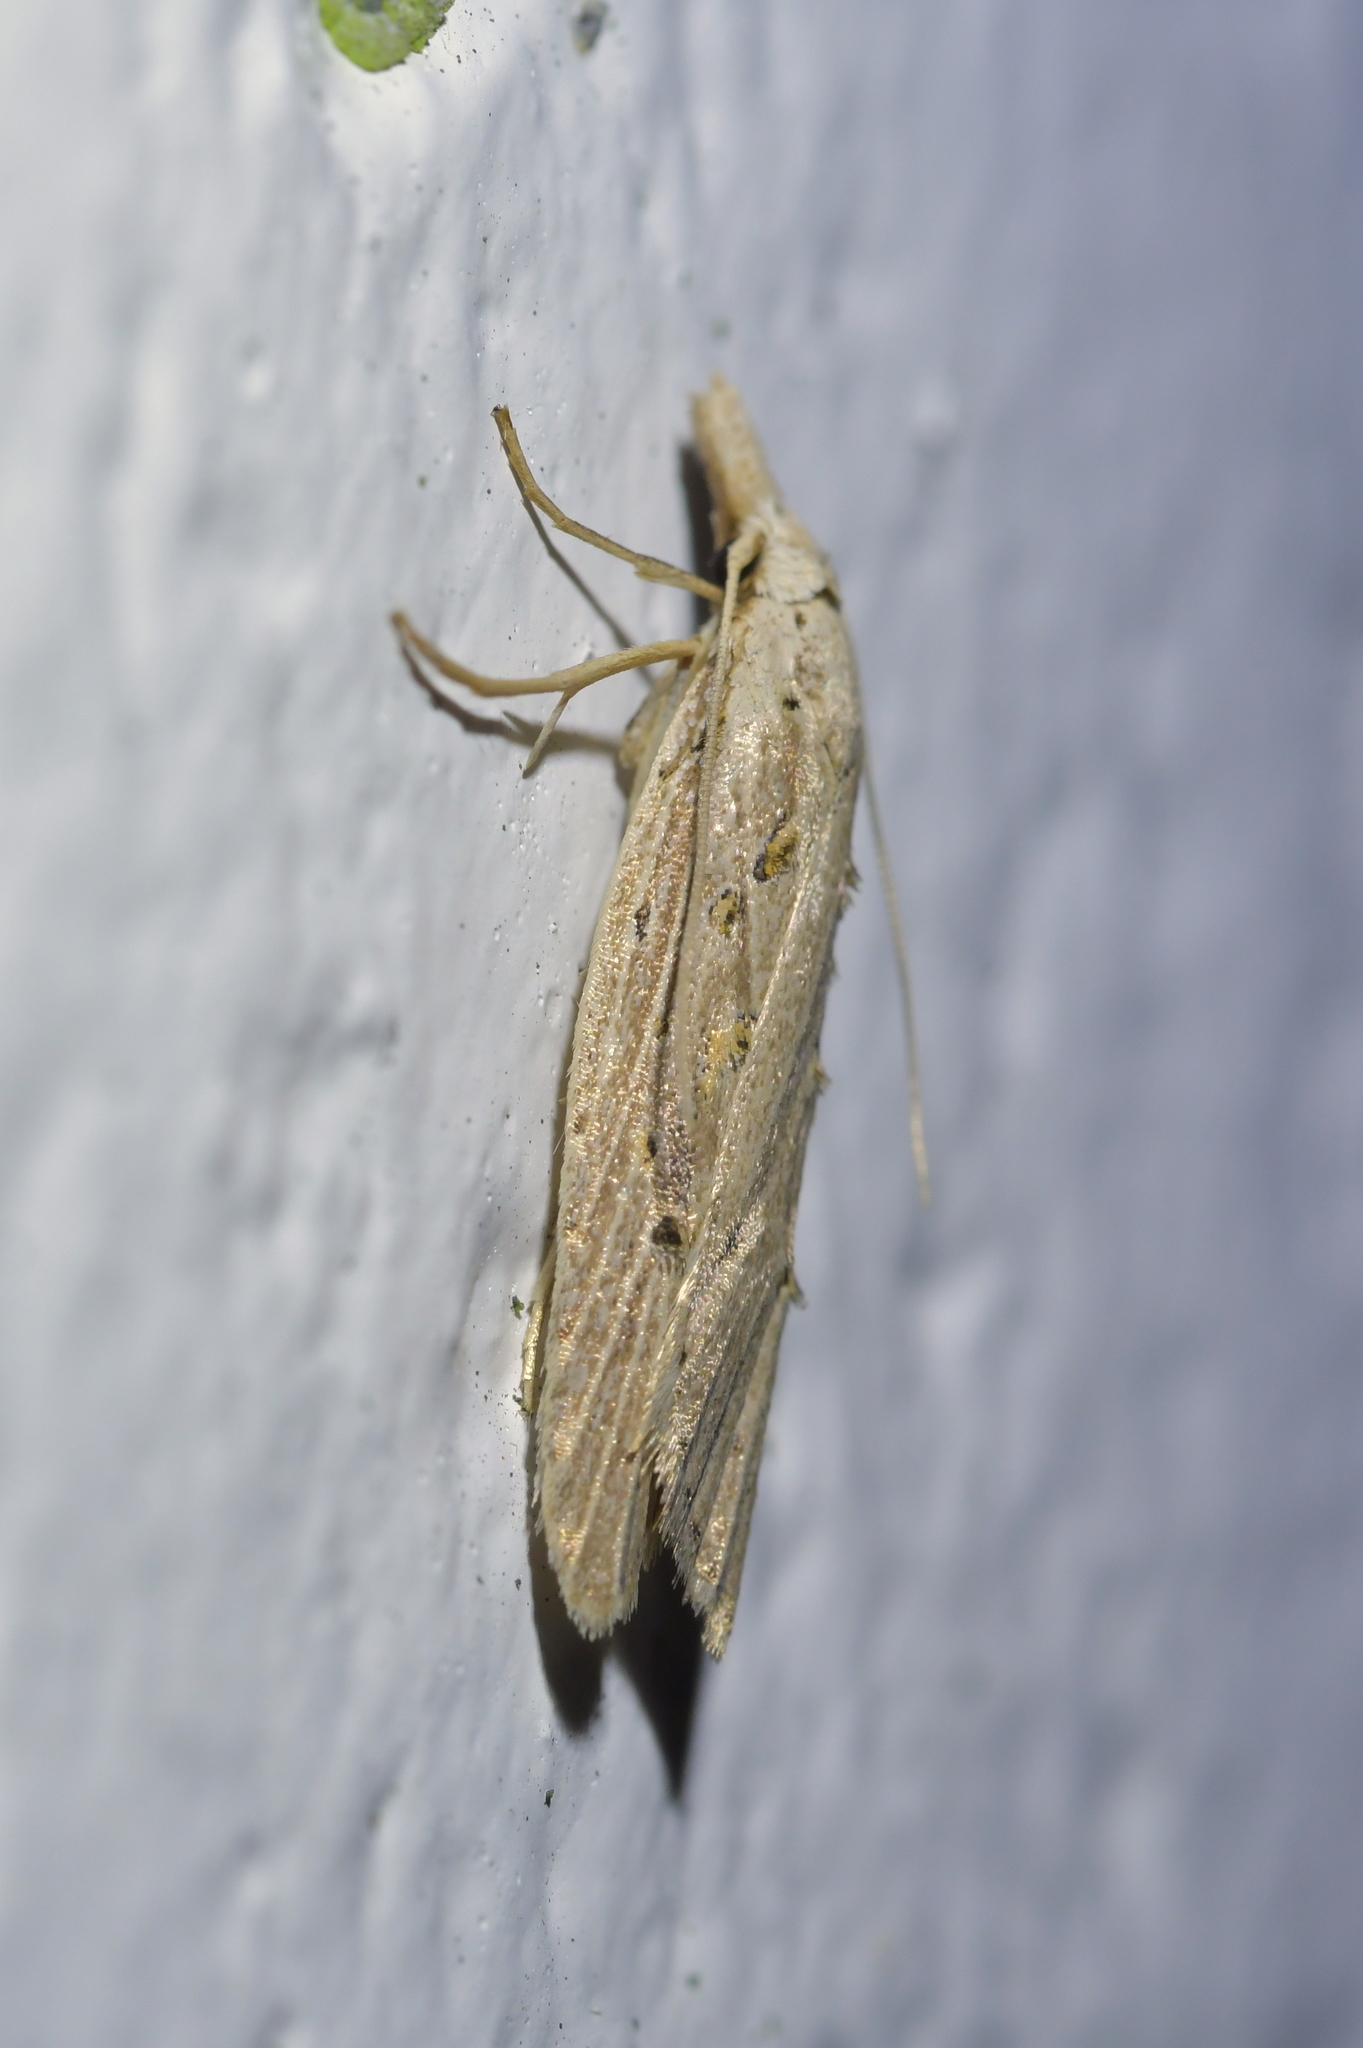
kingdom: Animalia
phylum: Arthropoda
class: Insecta
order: Lepidoptera
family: Carposinidae
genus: Carposina
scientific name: Carposina Heterocrossa exochana
